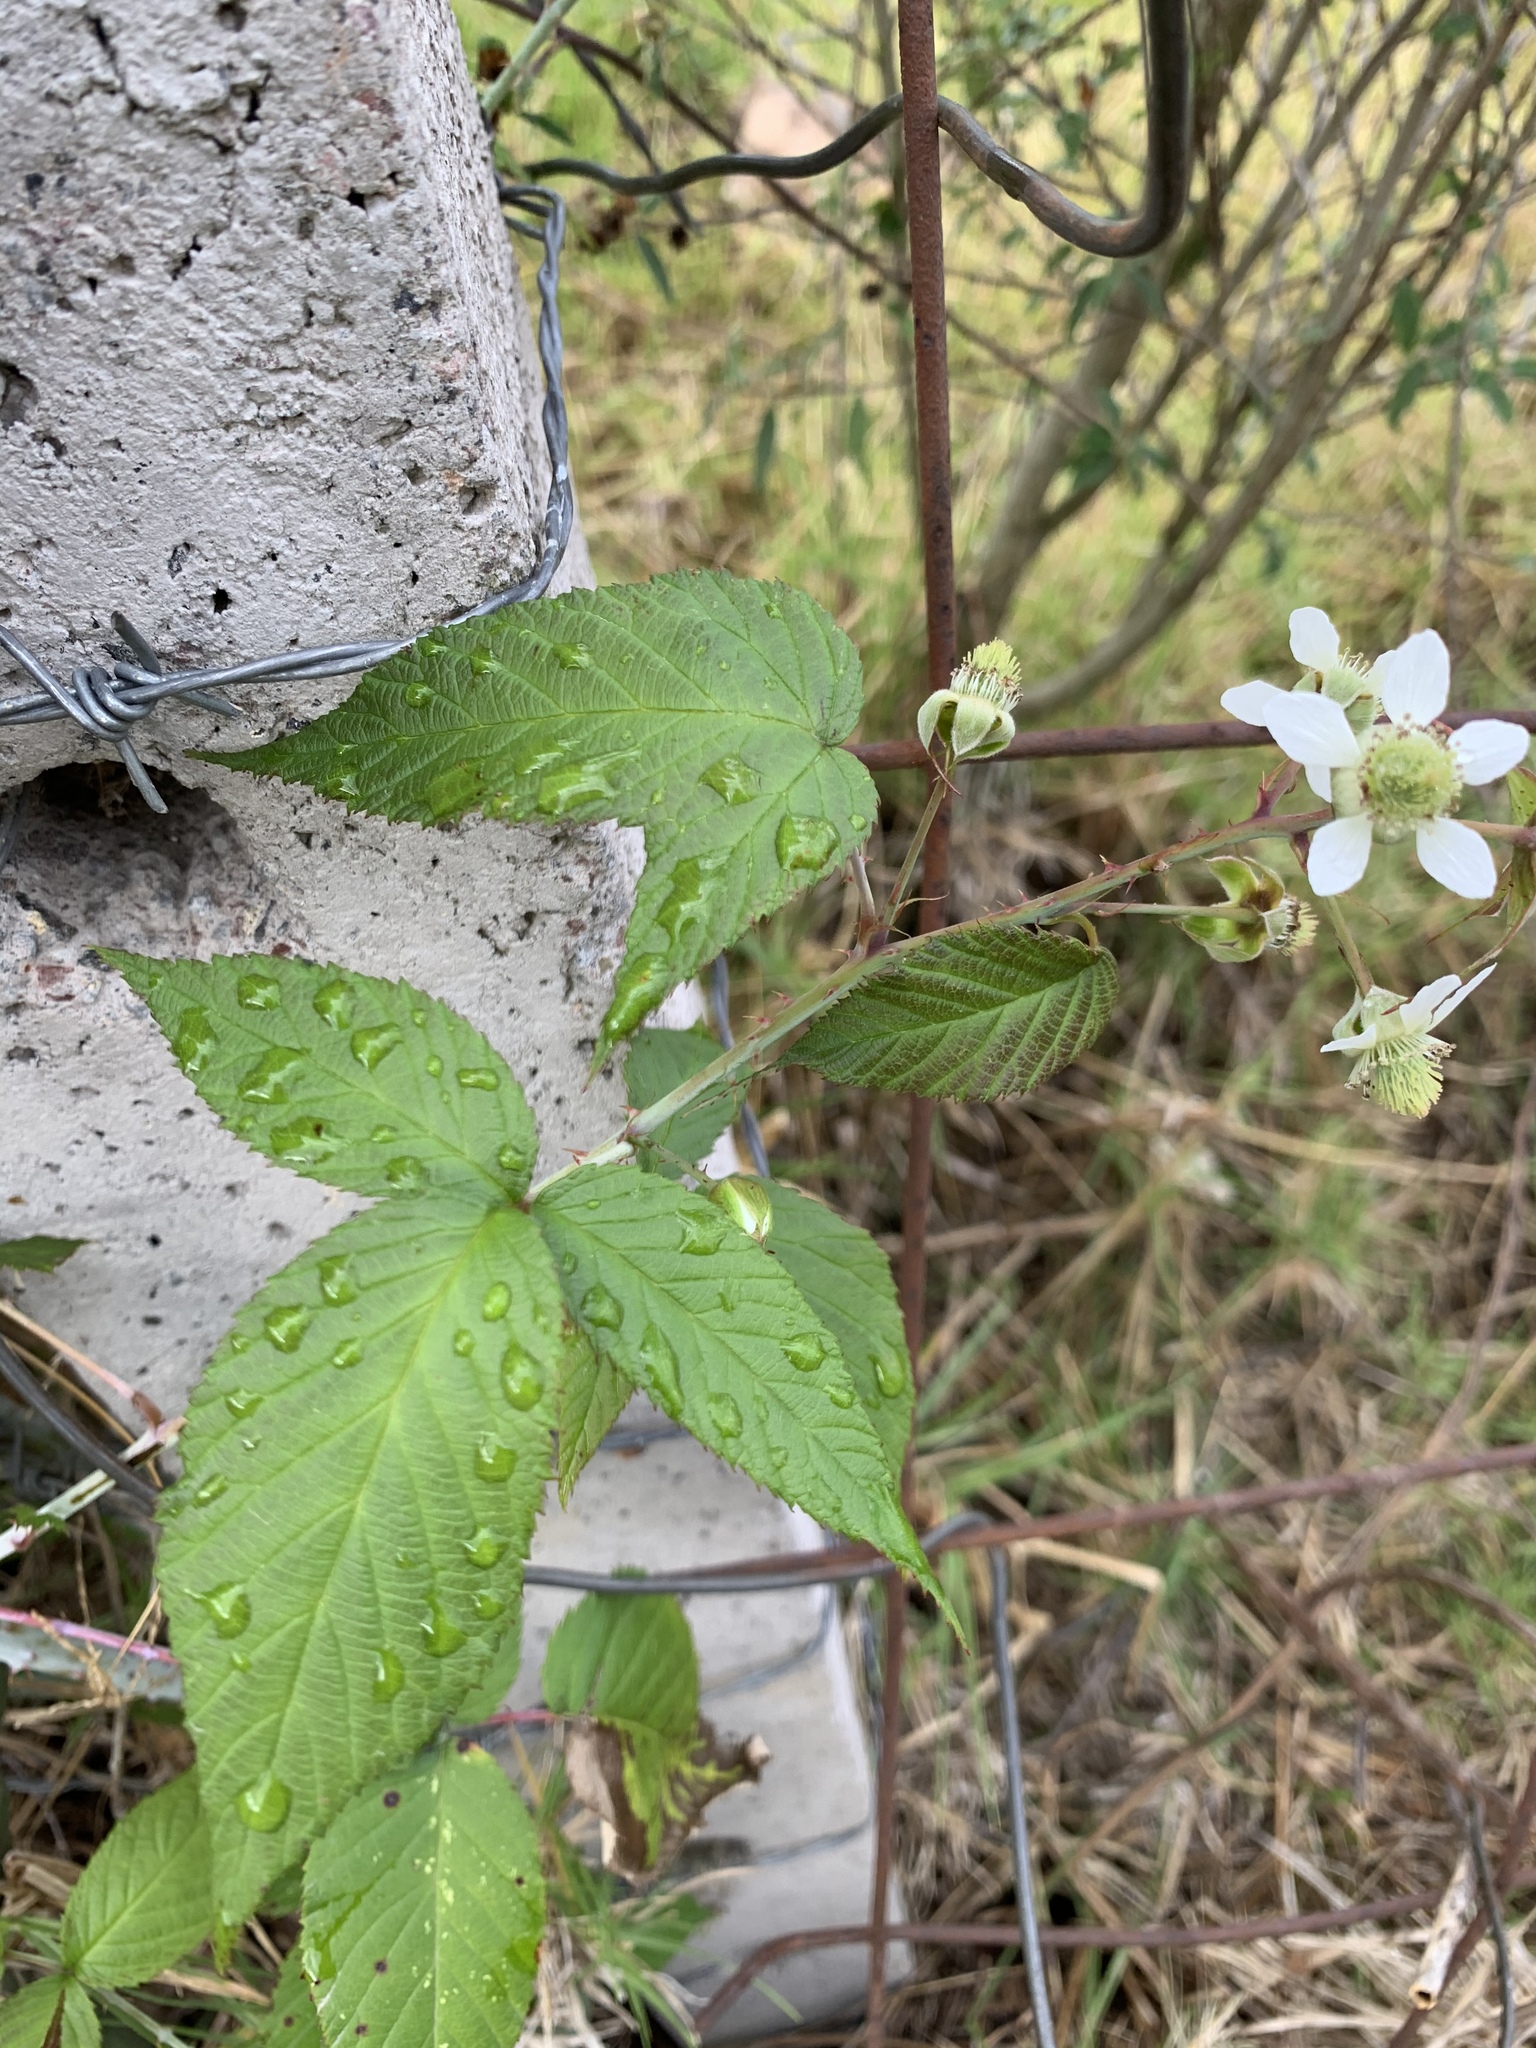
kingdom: Plantae
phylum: Tracheophyta
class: Magnoliopsida
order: Rosales
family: Rosaceae
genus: Rubus
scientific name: Rubus glaucus
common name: Andean blackberry
